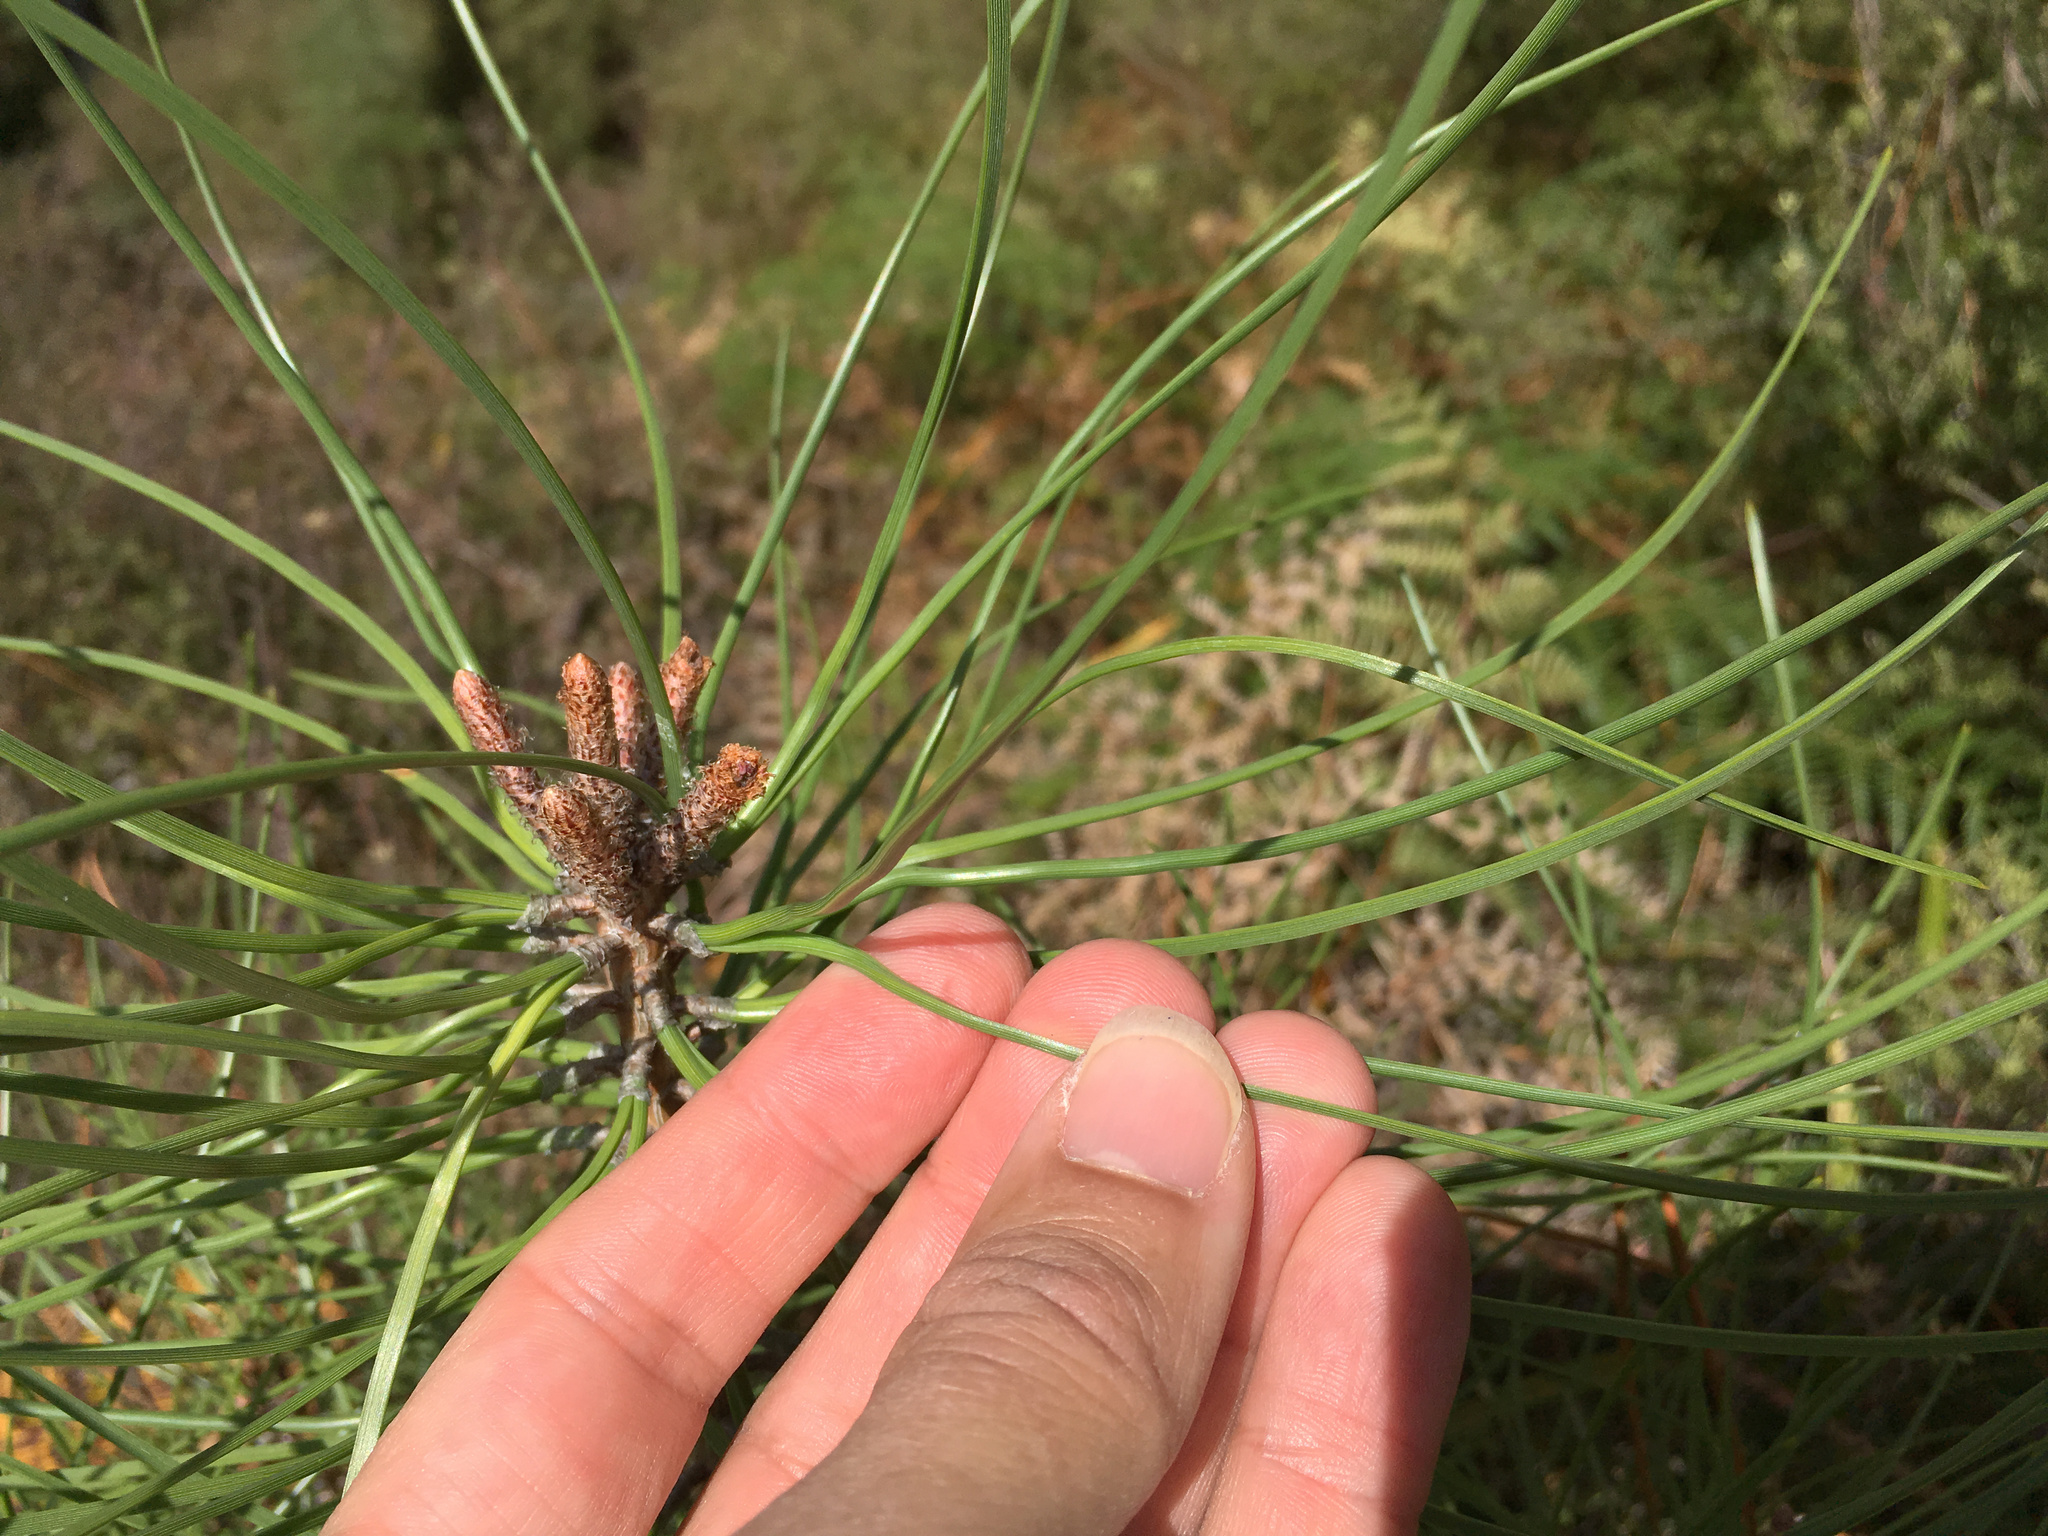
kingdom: Plantae
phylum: Tracheophyta
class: Pinopsida
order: Pinales
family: Pinaceae
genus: Pinus
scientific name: Pinus pinaster
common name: Maritime pine
